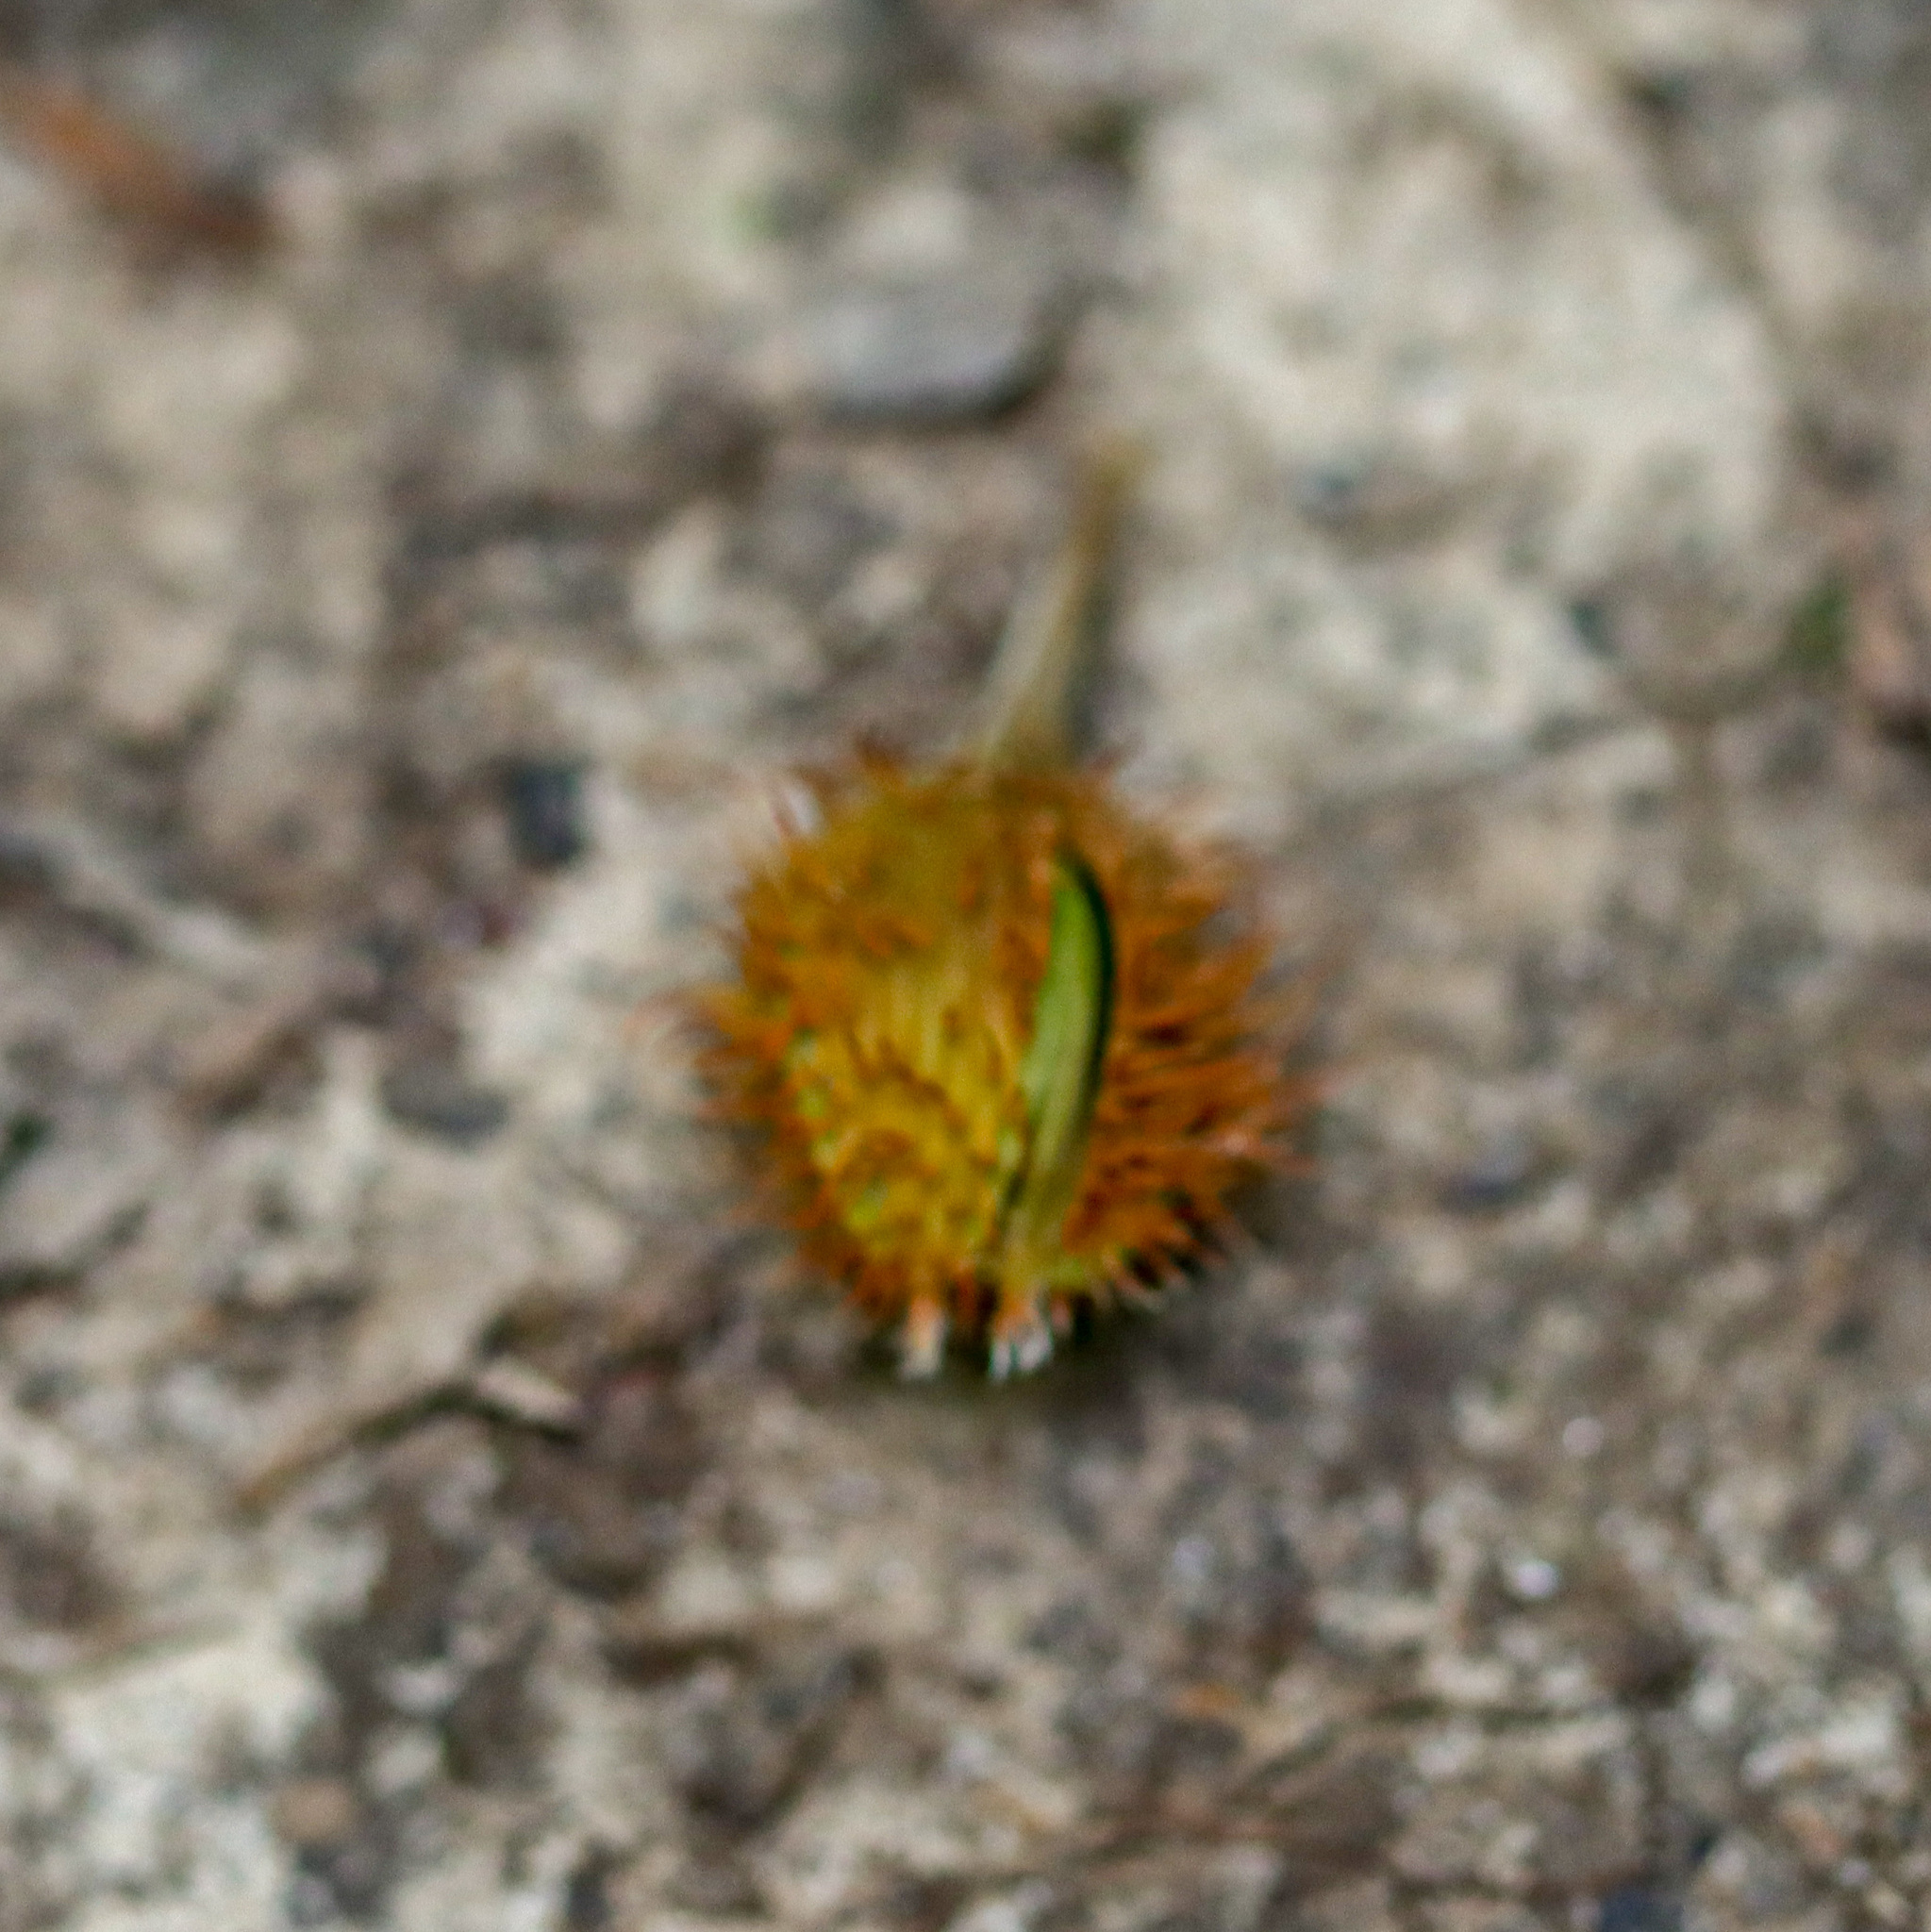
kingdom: Plantae
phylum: Tracheophyta
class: Magnoliopsida
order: Fagales
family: Fagaceae
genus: Fagus
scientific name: Fagus grandifolia
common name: American beech
